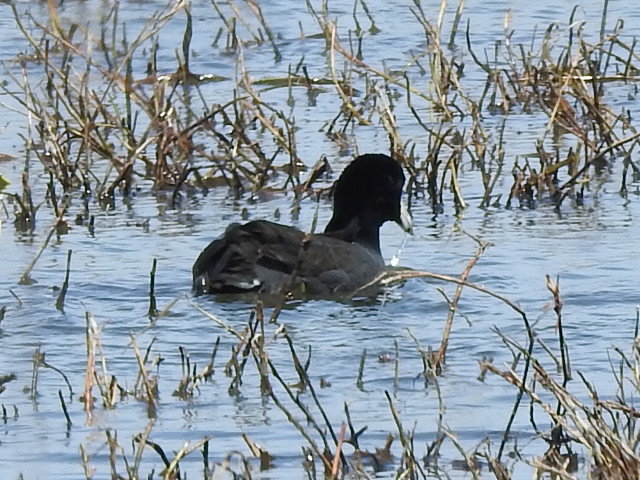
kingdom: Animalia
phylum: Chordata
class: Aves
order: Gruiformes
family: Rallidae
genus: Fulica
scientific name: Fulica americana
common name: American coot
